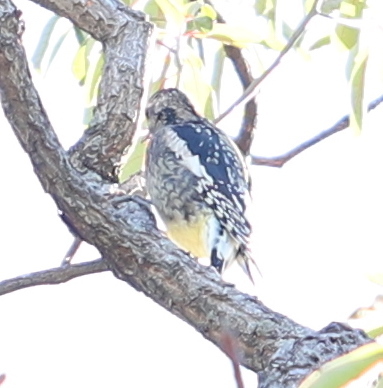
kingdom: Animalia
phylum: Chordata
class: Aves
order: Piciformes
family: Picidae
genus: Sphyrapicus
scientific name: Sphyrapicus varius
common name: Yellow-bellied sapsucker
